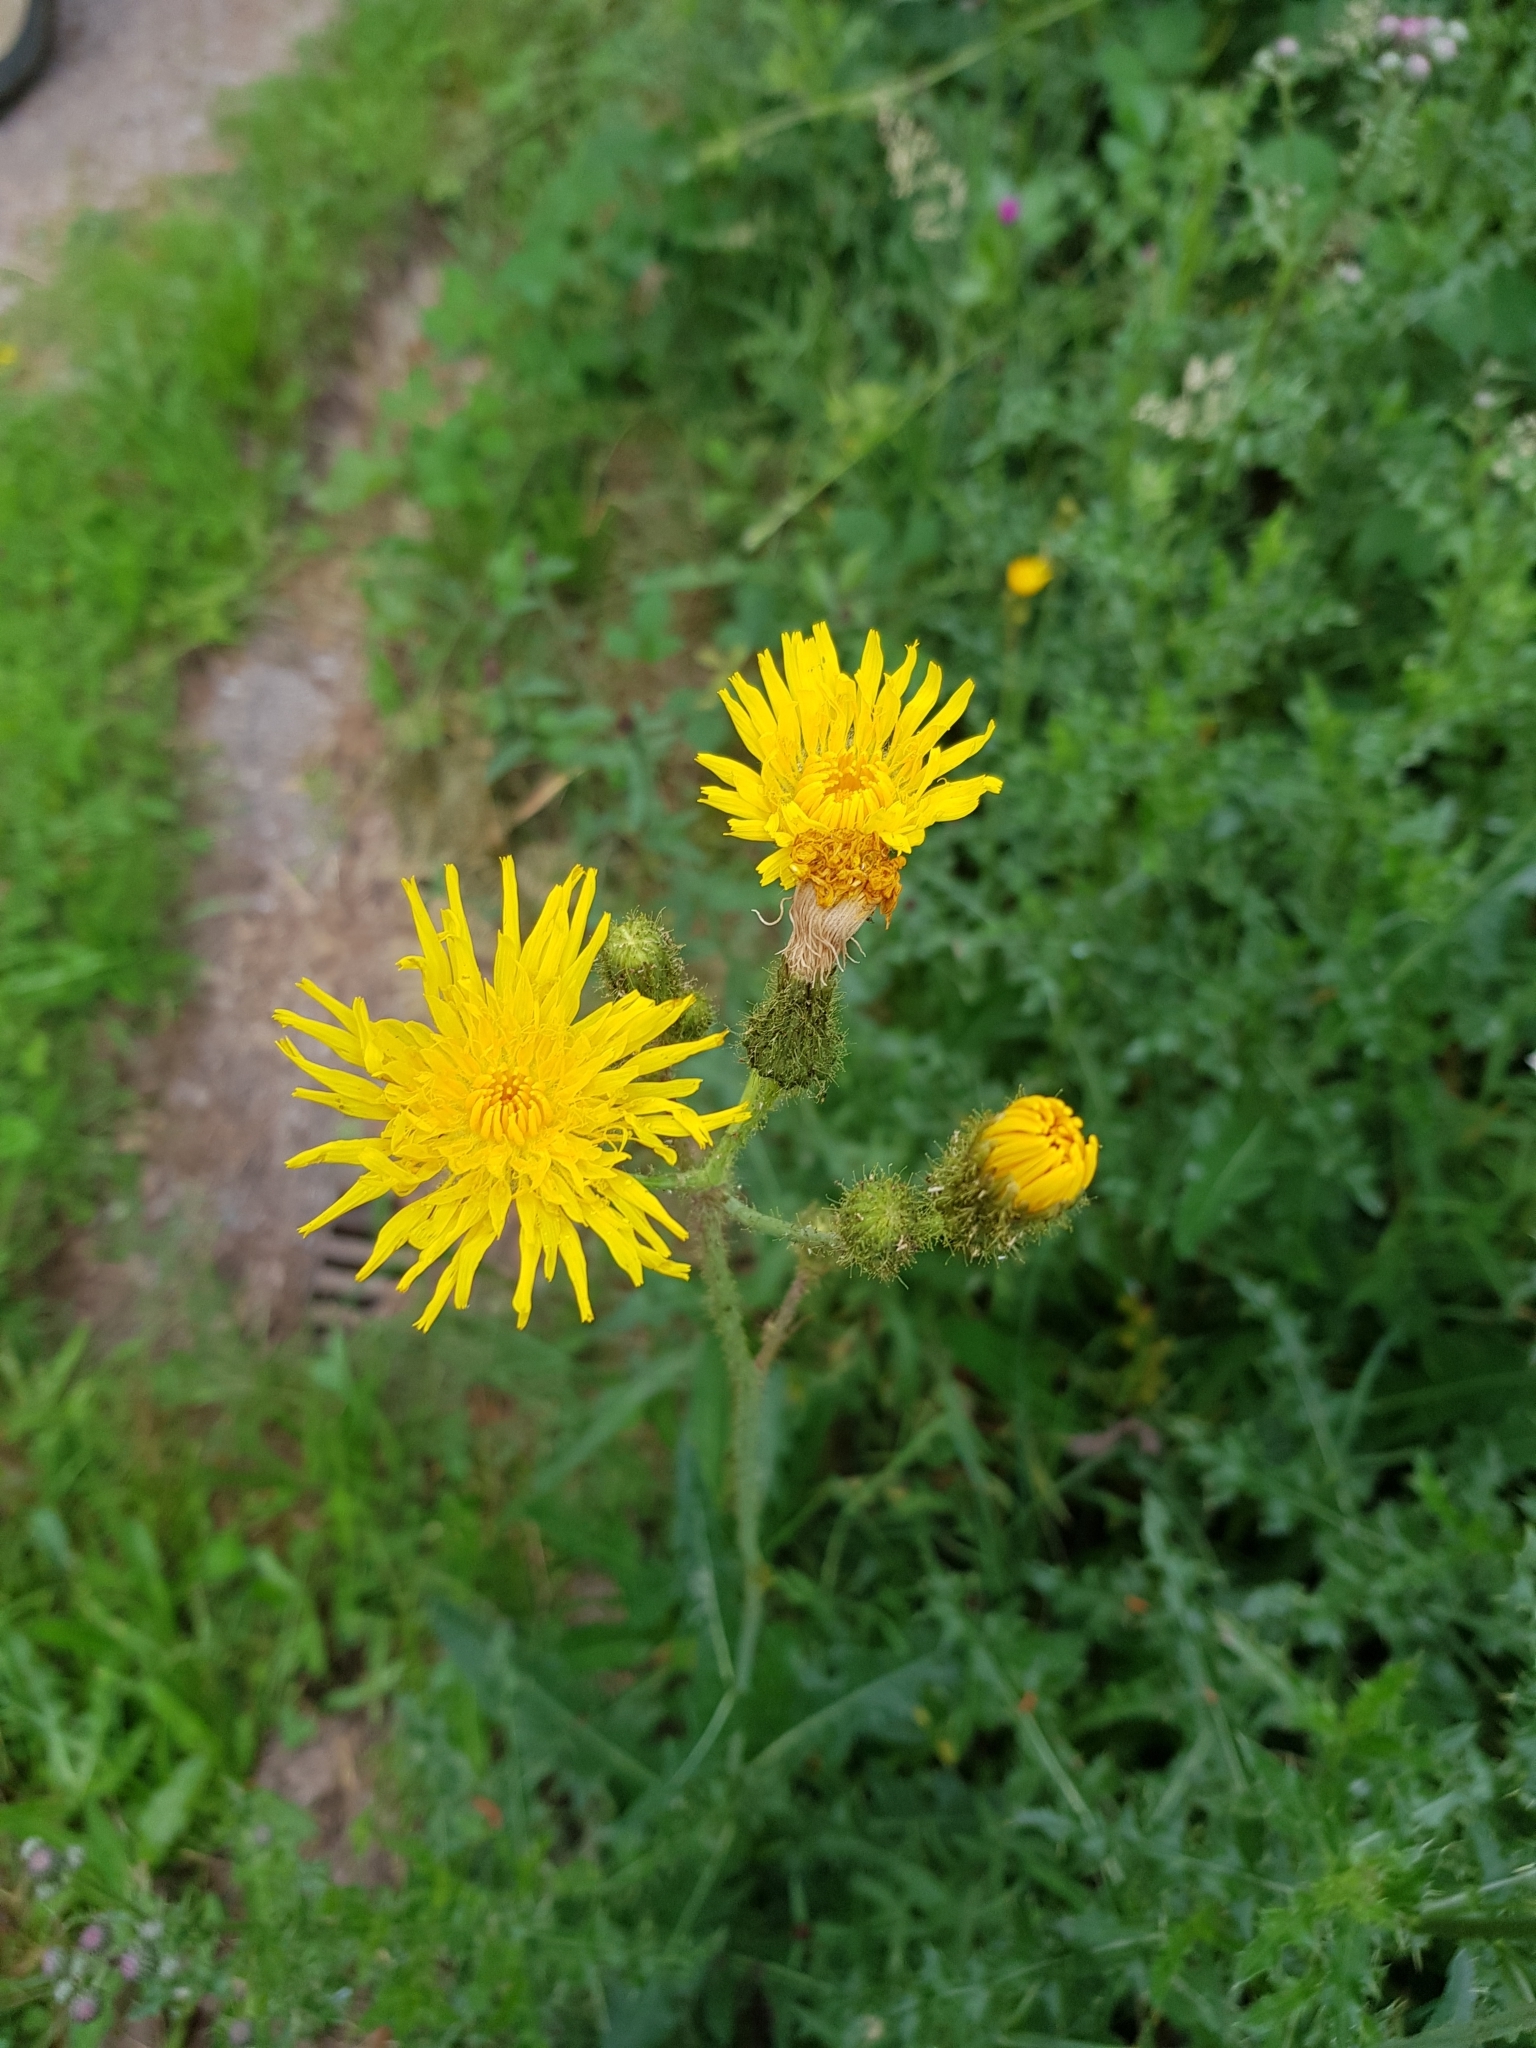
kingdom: Plantae
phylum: Tracheophyta
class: Magnoliopsida
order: Asterales
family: Asteraceae
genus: Sonchus
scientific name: Sonchus arvensis
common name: Perennial sow-thistle
